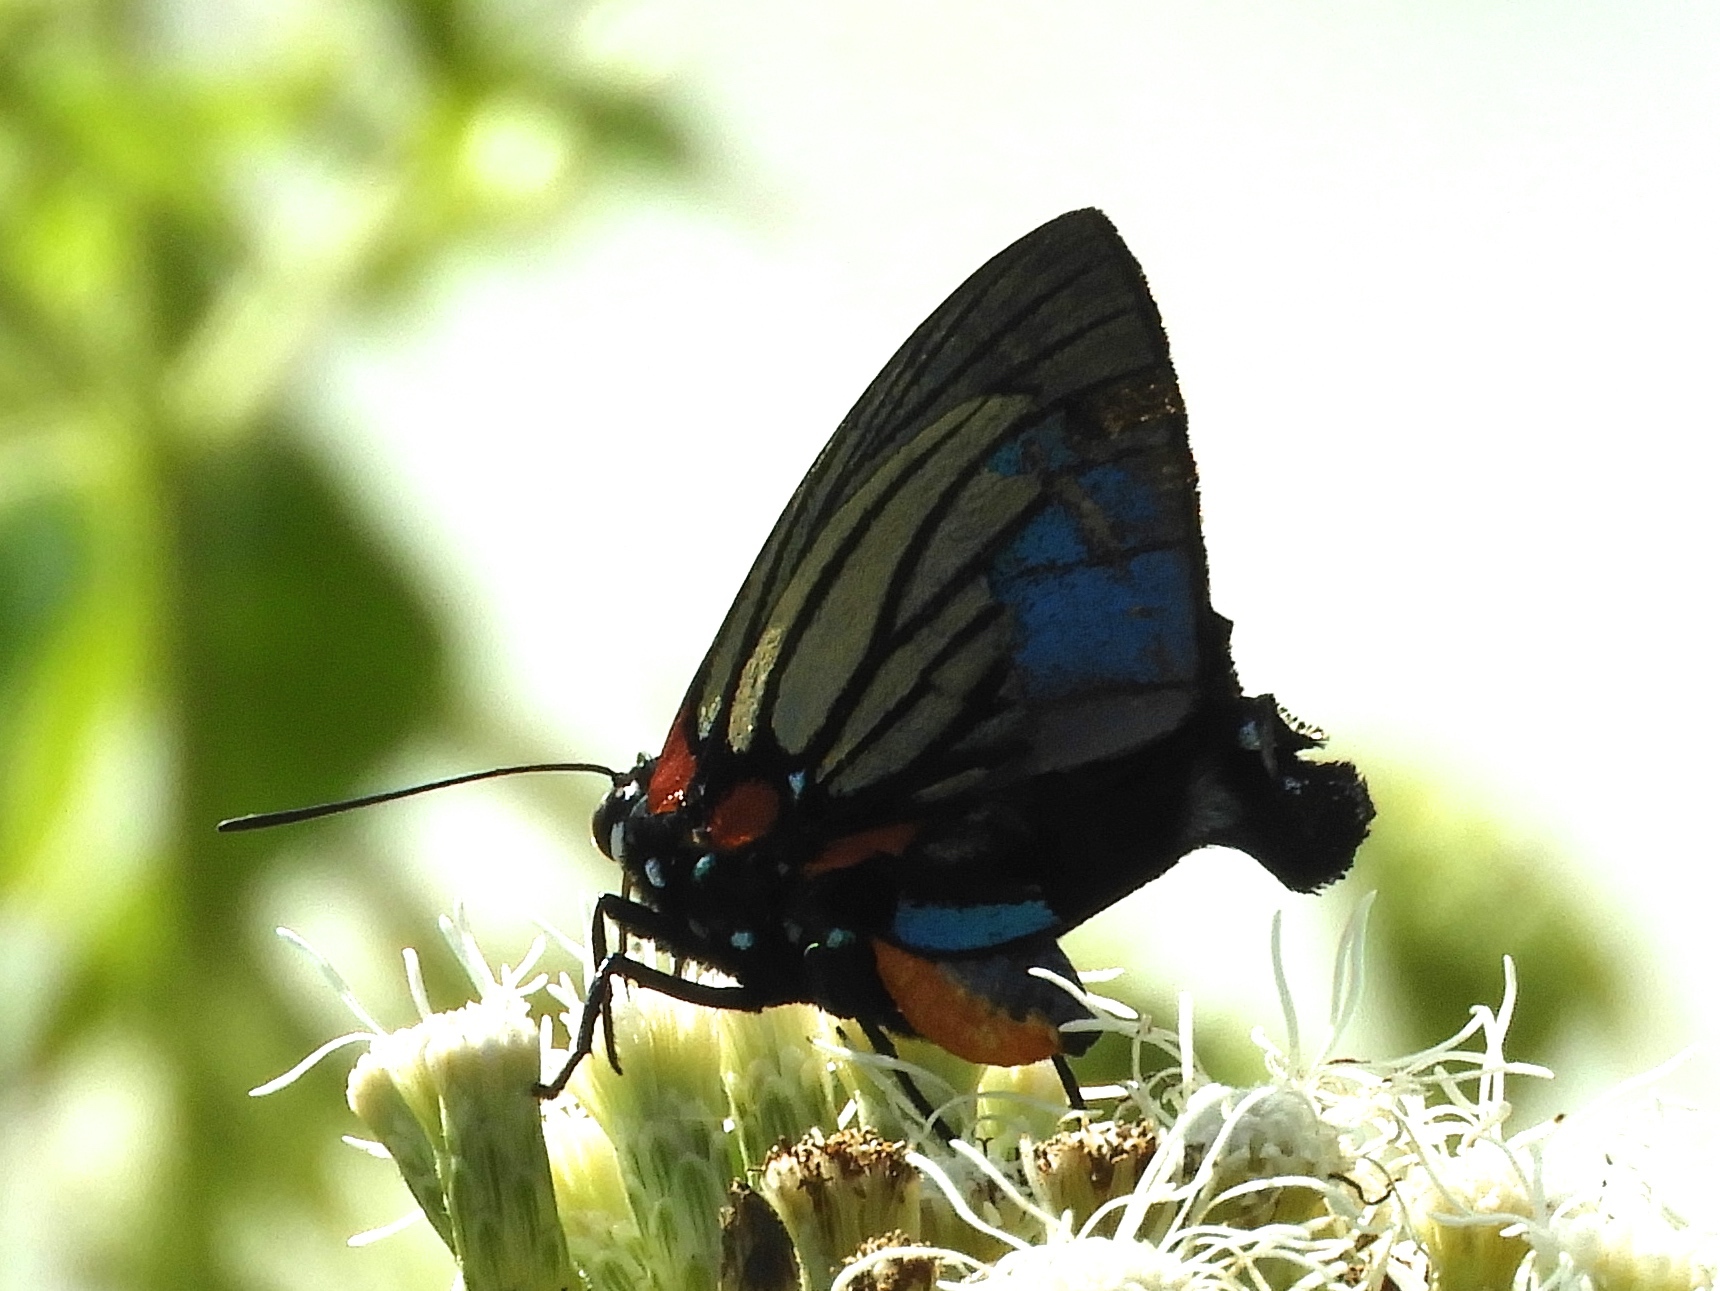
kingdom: Animalia
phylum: Arthropoda
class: Insecta
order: Lepidoptera
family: Lycaenidae
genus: Thecla
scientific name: Thecla polybe
